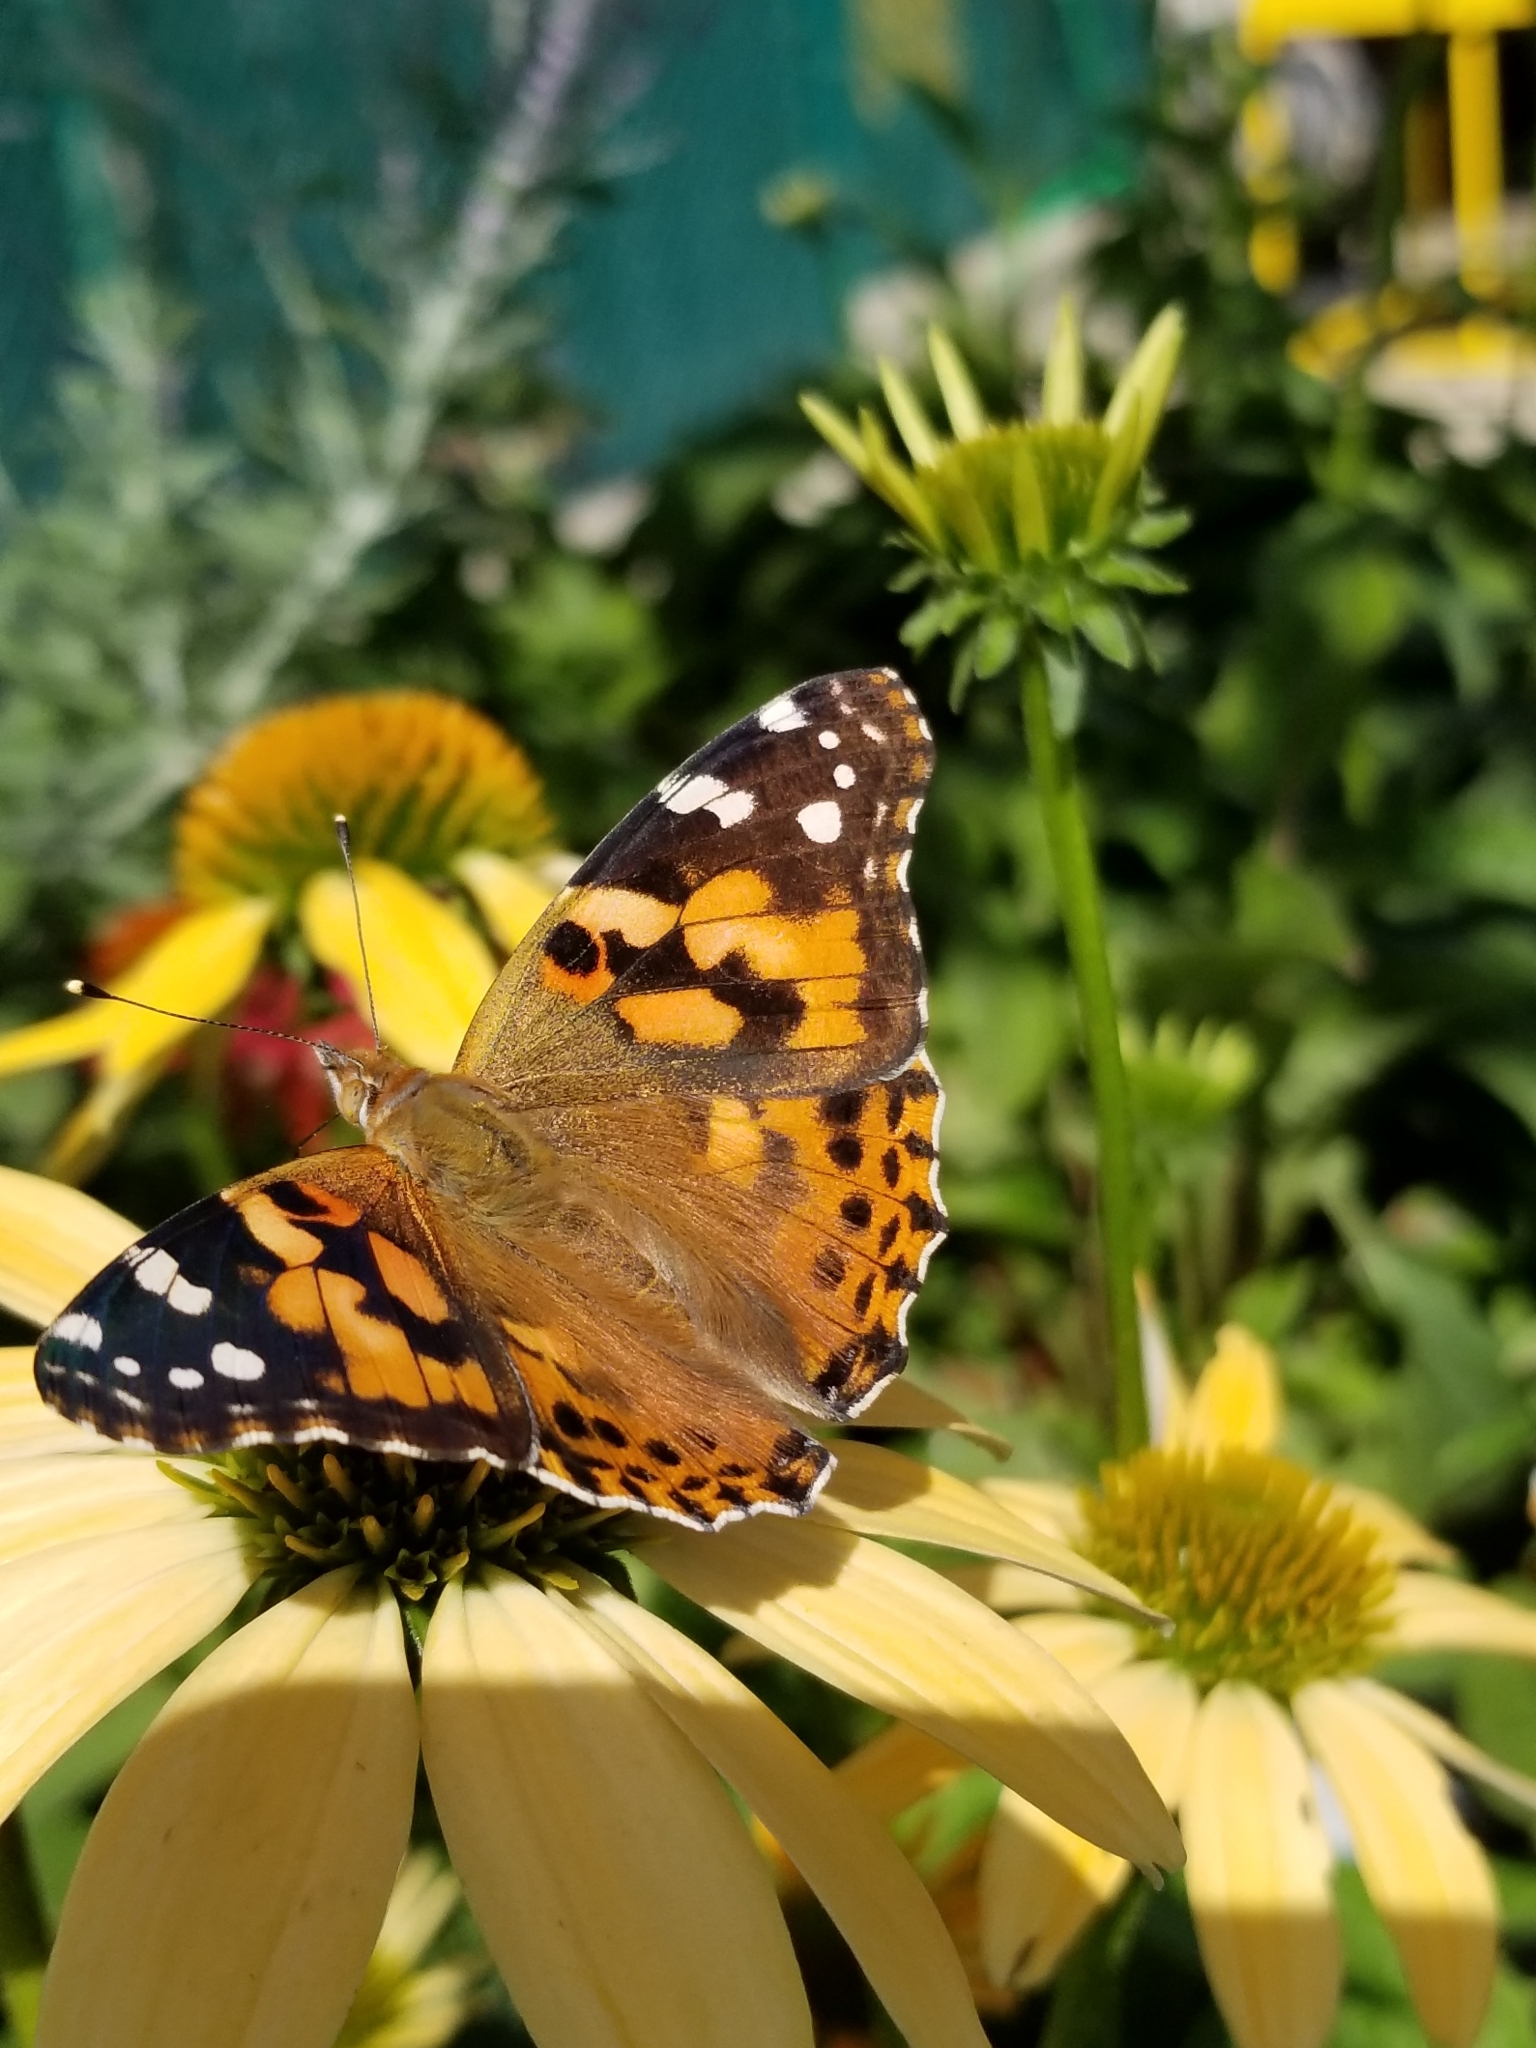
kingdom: Animalia
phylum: Arthropoda
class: Insecta
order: Lepidoptera
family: Nymphalidae
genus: Vanessa
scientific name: Vanessa cardui
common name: Painted lady
